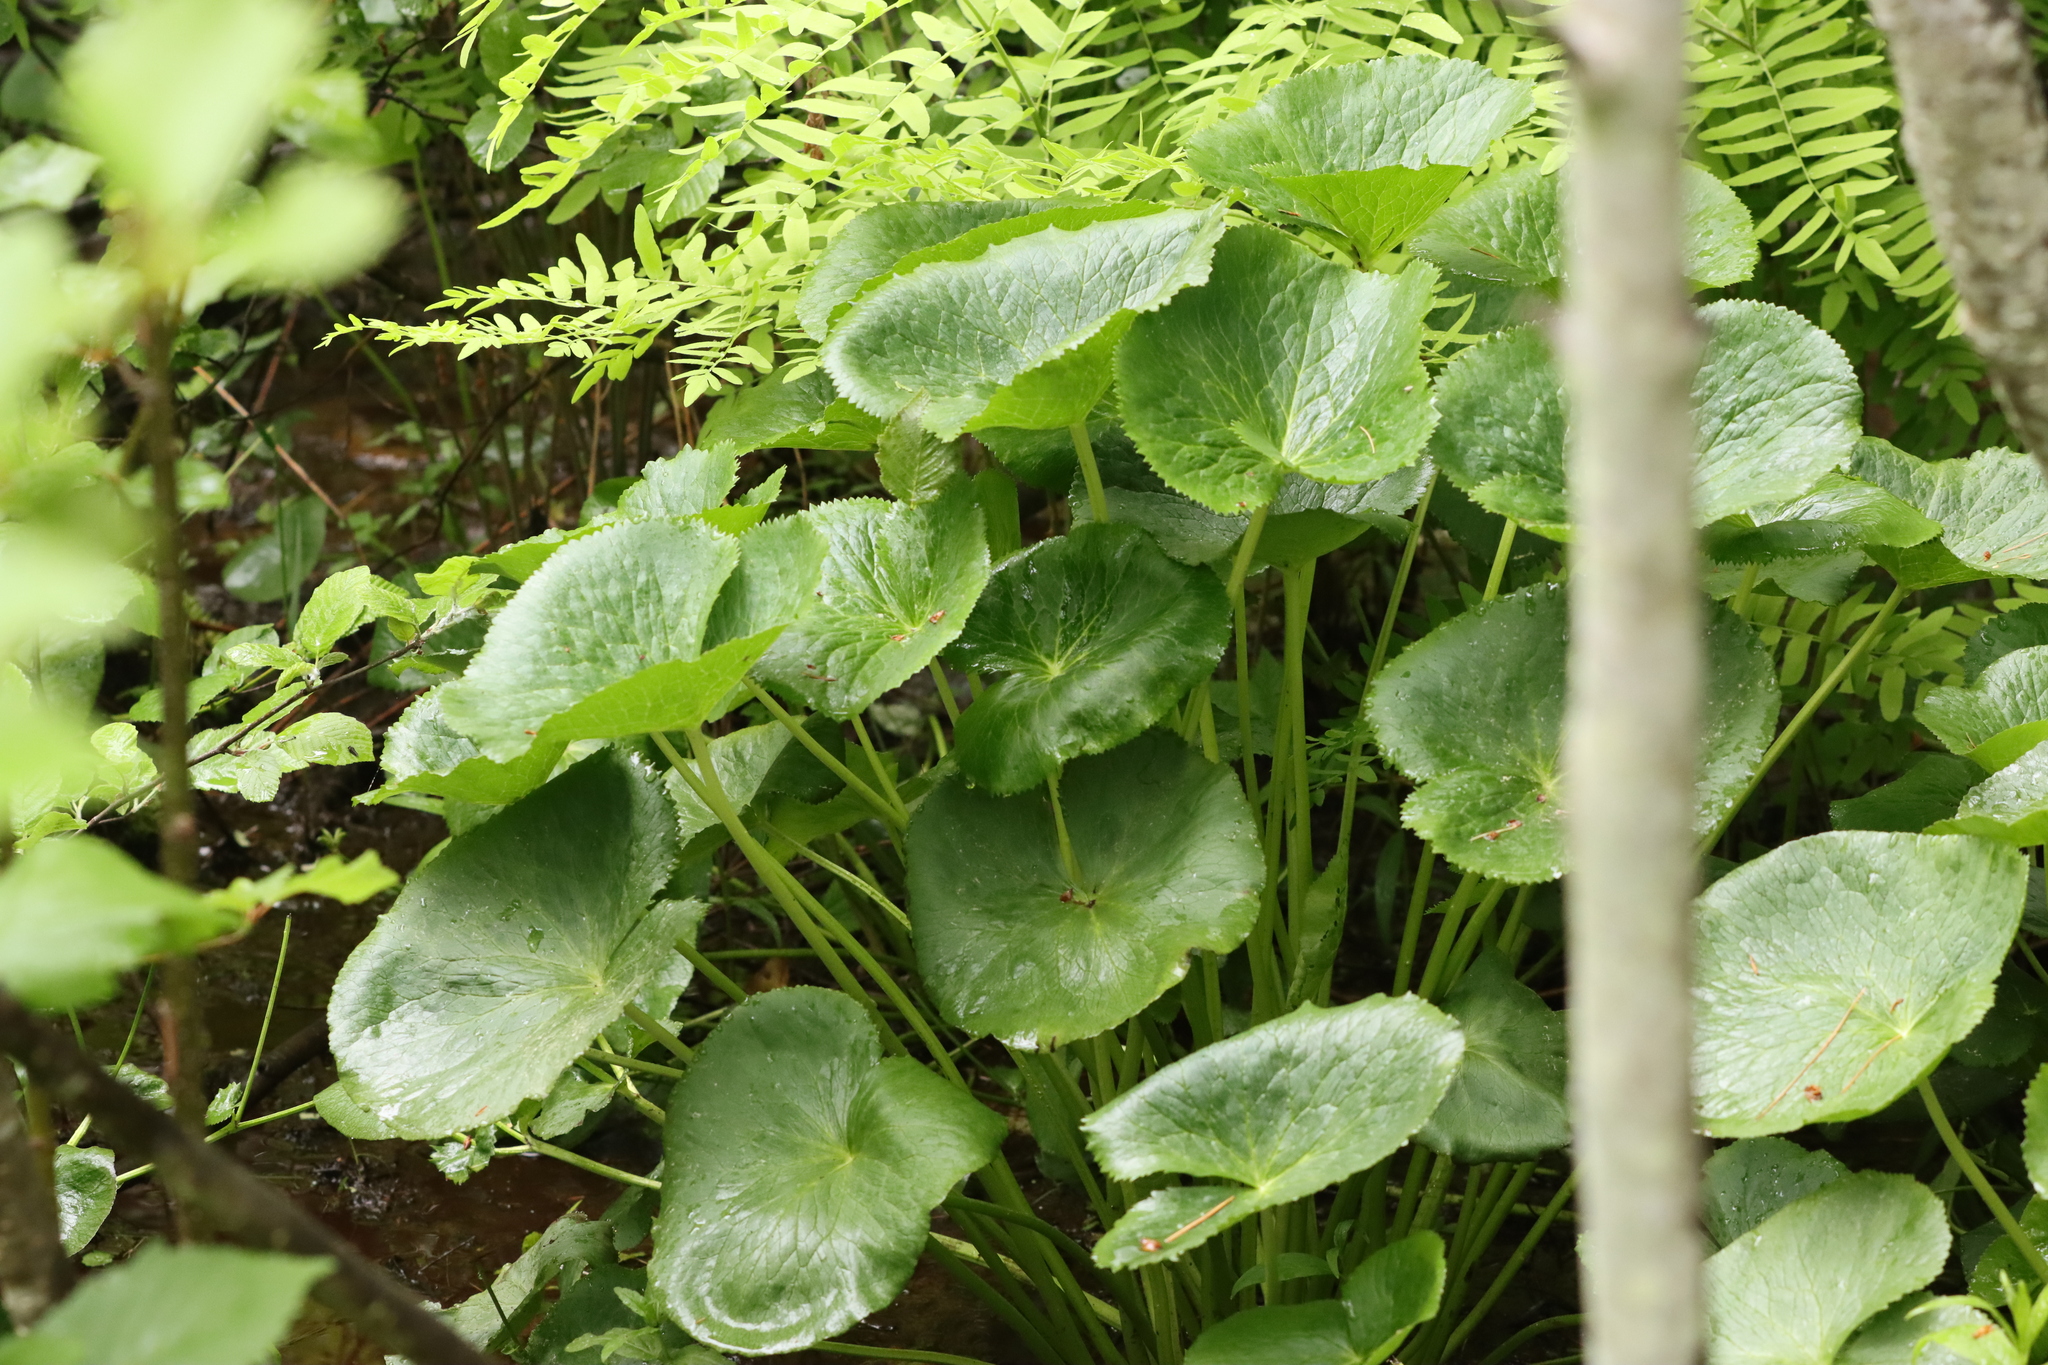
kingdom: Plantae
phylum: Tracheophyta
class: Magnoliopsida
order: Ranunculales
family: Ranunculaceae
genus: Caltha
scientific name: Caltha palustris
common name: Marsh marigold
